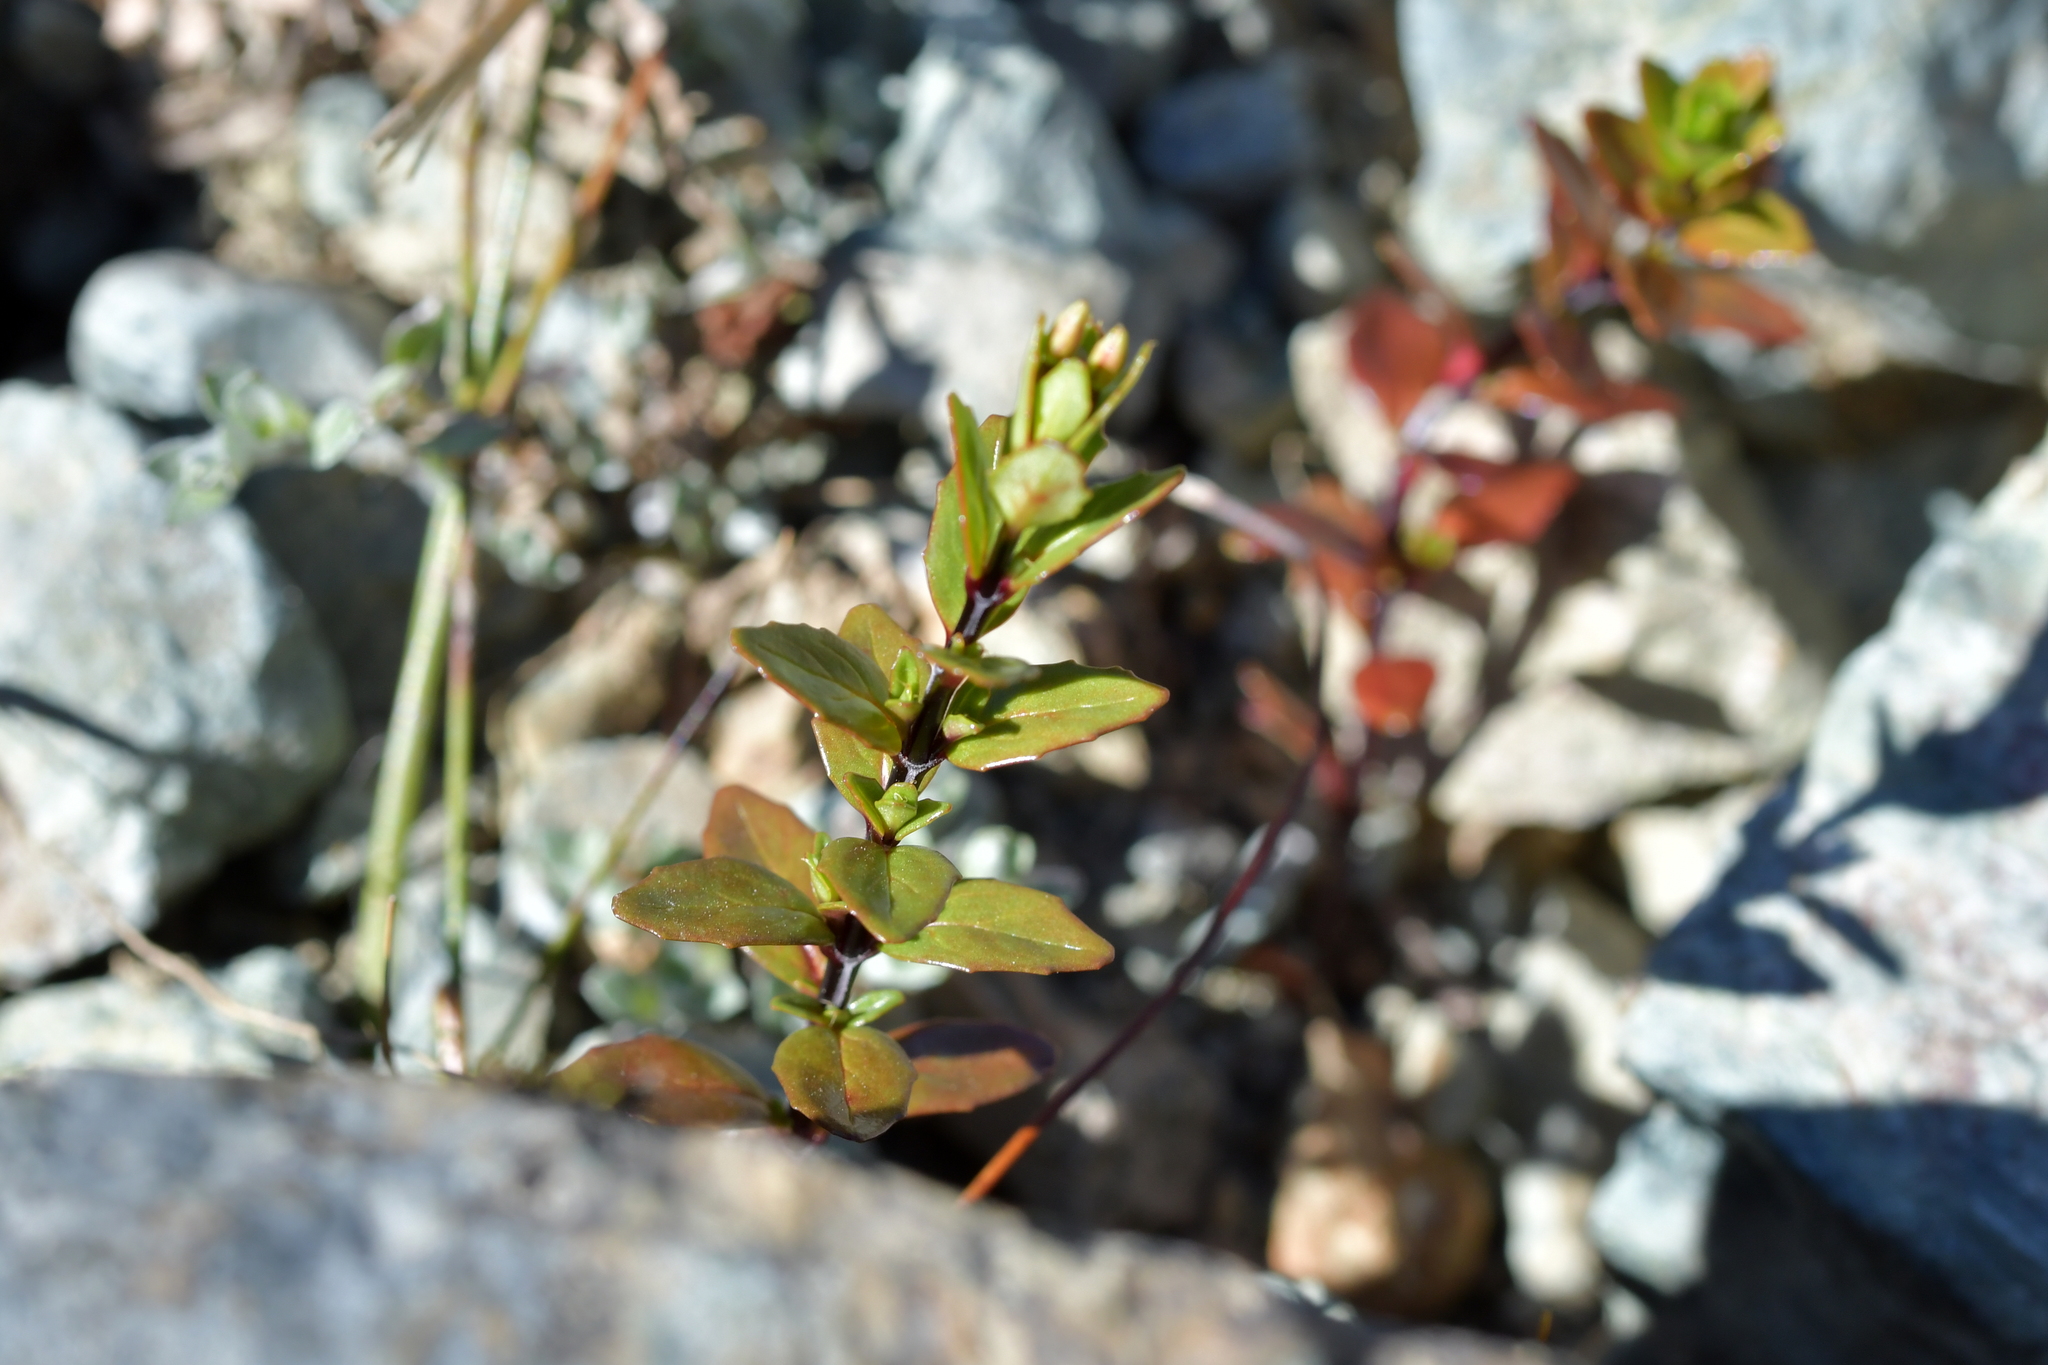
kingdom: Plantae
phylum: Tracheophyta
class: Magnoliopsida
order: Myrtales
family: Onagraceae
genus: Epilobium
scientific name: Epilobium glabellum
